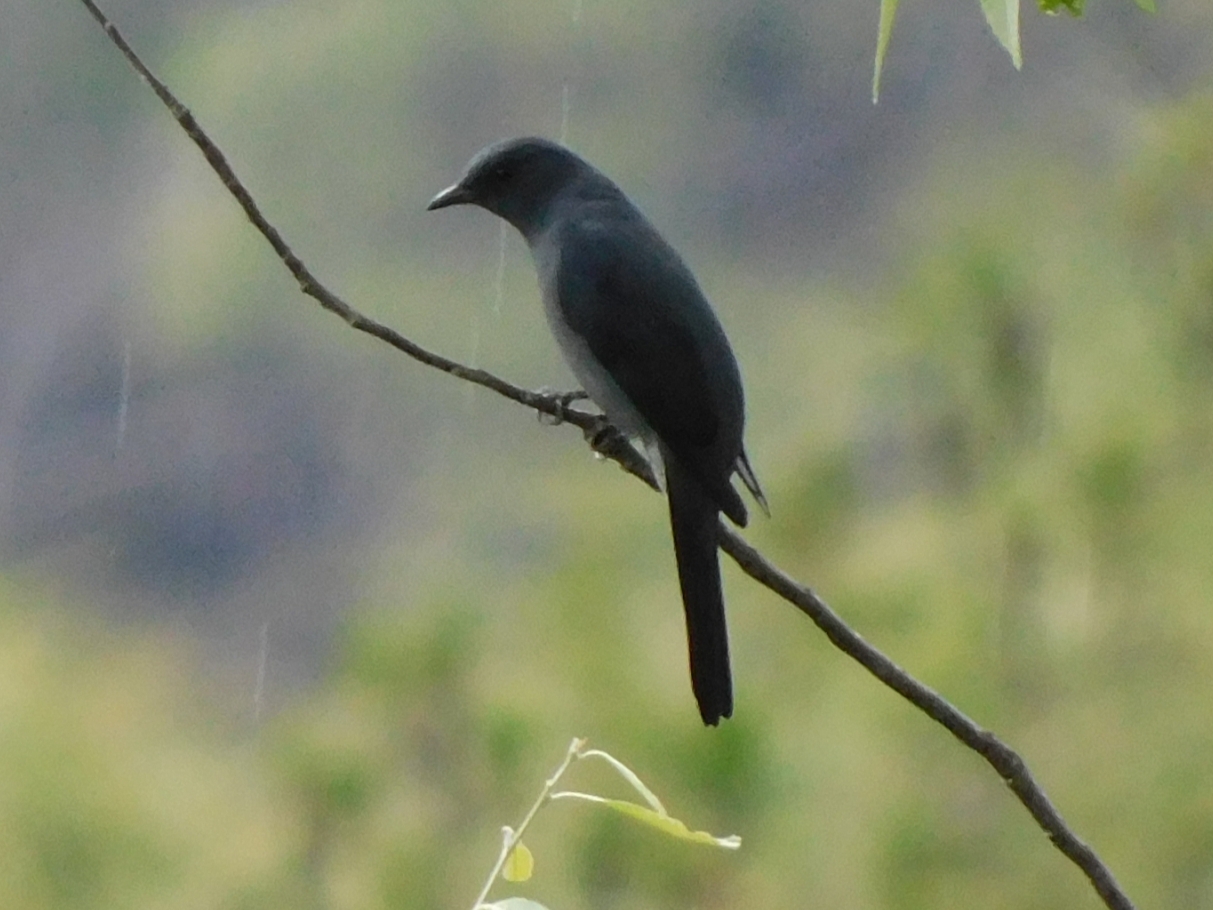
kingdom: Animalia
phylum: Chordata
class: Aves
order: Passeriformes
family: Campephagidae
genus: Coracina
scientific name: Coracina melaschistos
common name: Black-winged cuckooshrike
